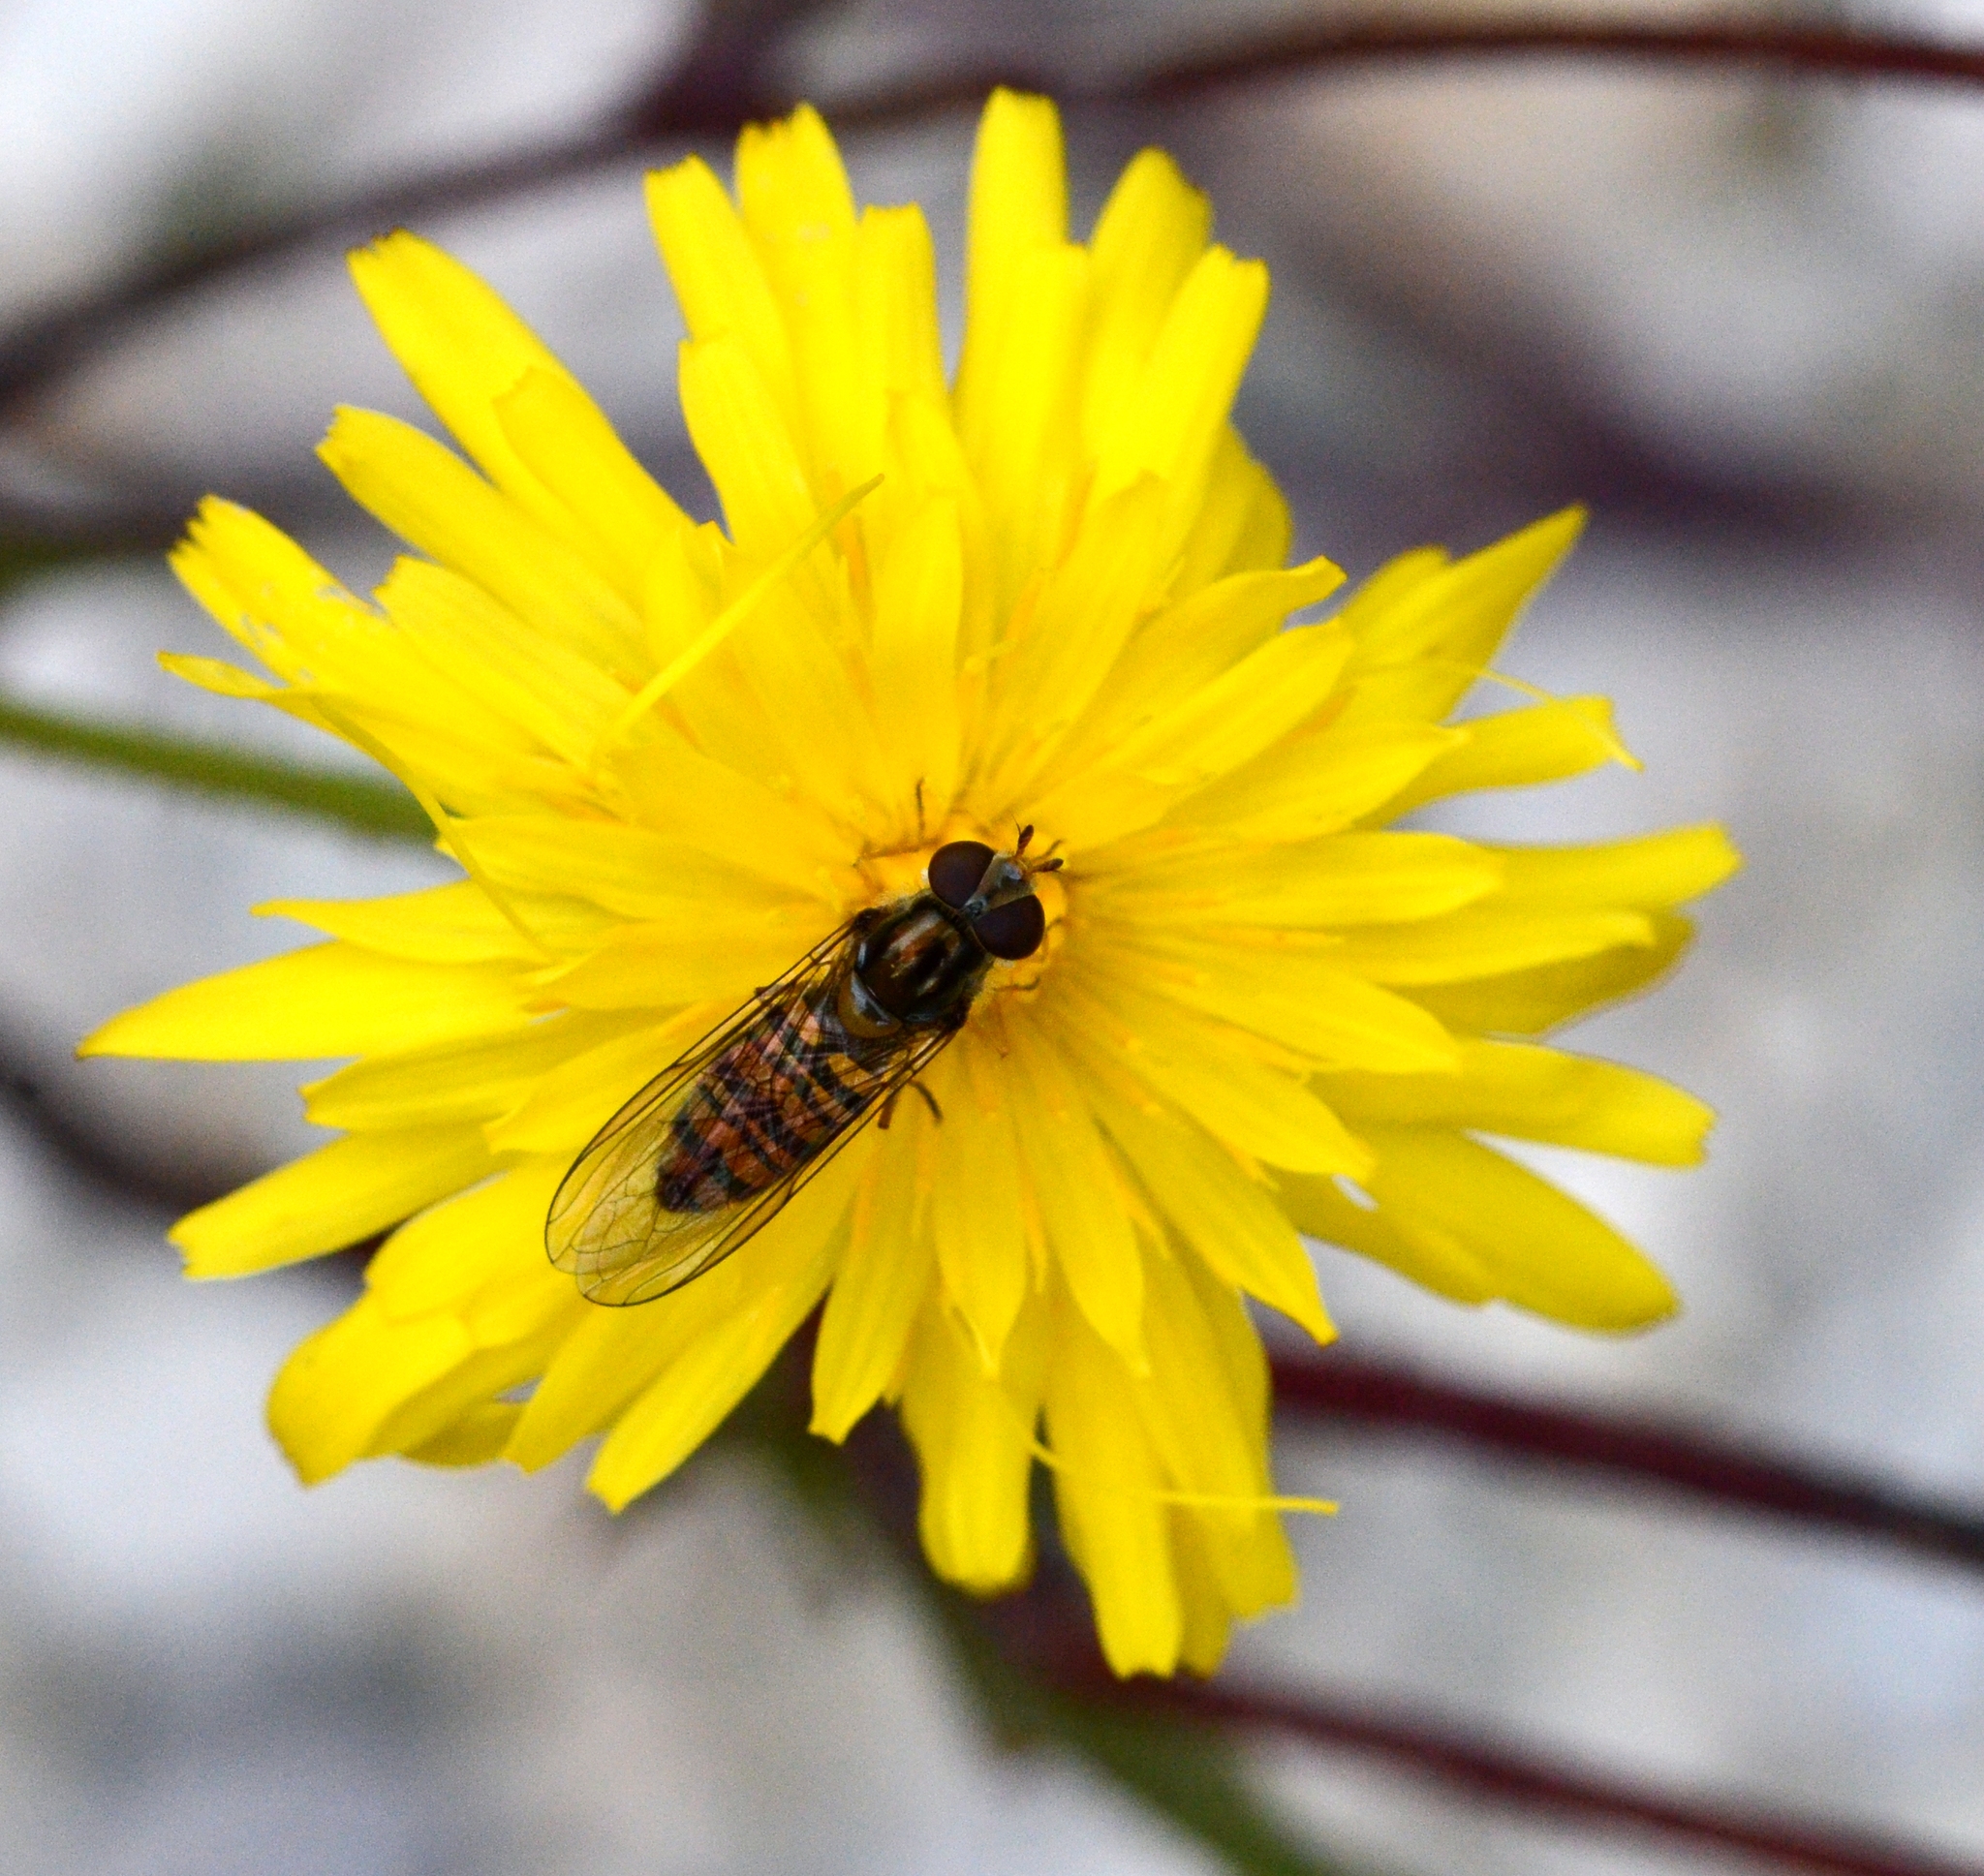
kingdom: Animalia
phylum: Arthropoda
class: Insecta
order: Diptera
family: Syrphidae
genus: Episyrphus
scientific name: Episyrphus balteatus
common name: Marmalade hoverfly
